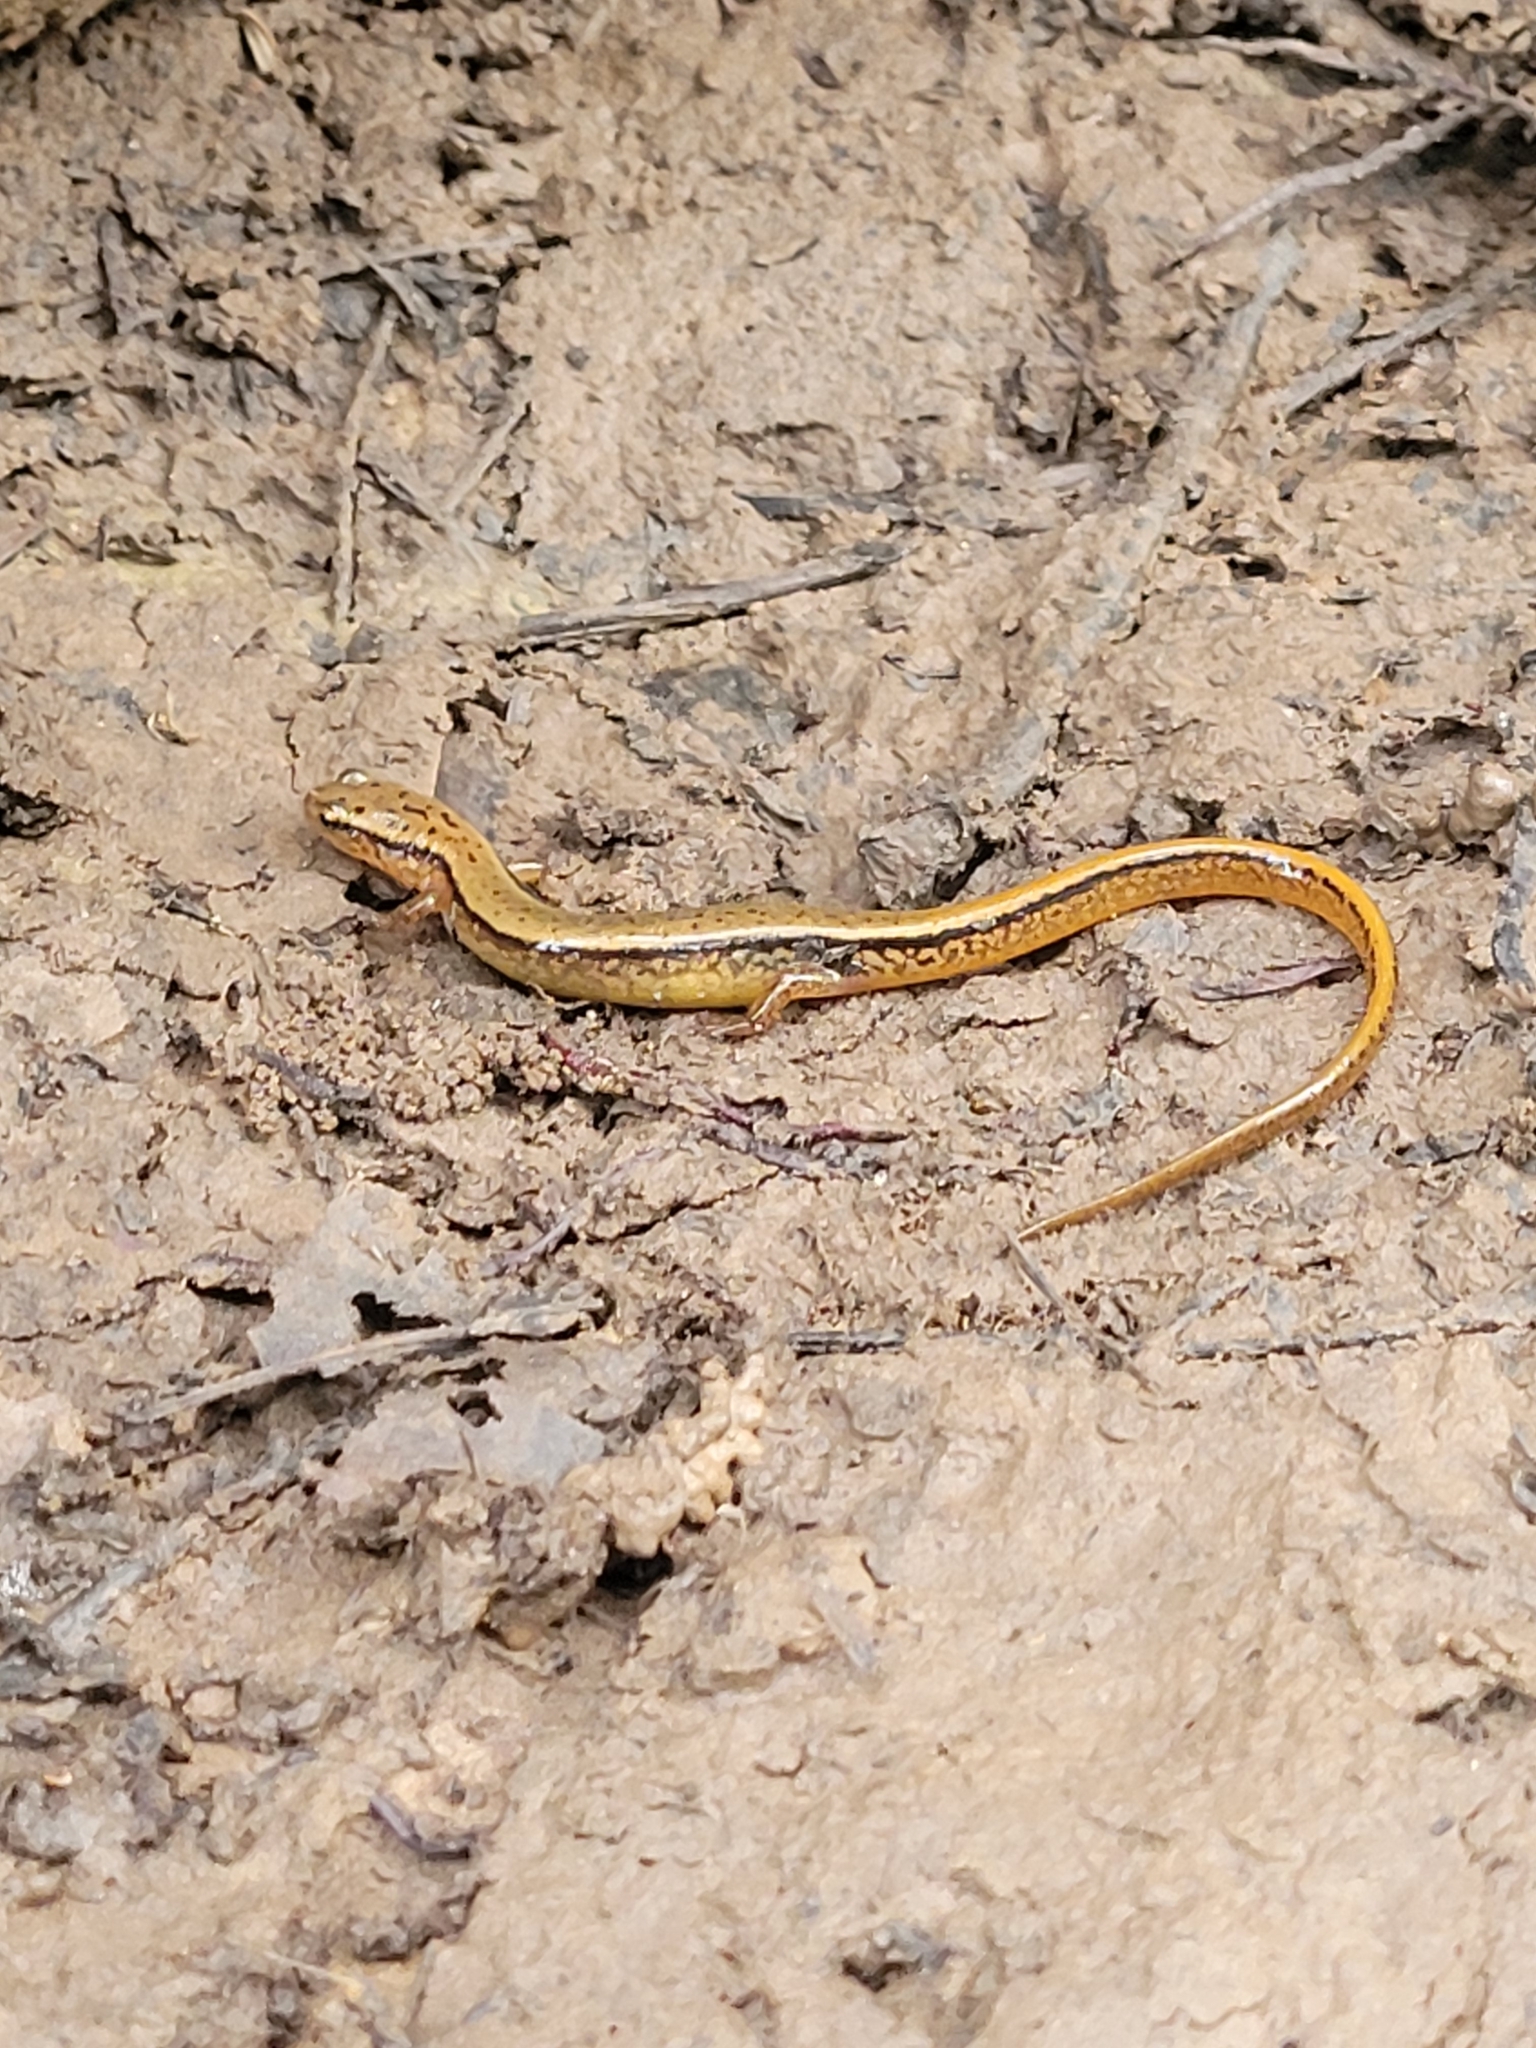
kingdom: Animalia
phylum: Chordata
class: Amphibia
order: Caudata
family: Plethodontidae
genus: Eurycea
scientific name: Eurycea bislineata
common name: Northern two-lined salamander
